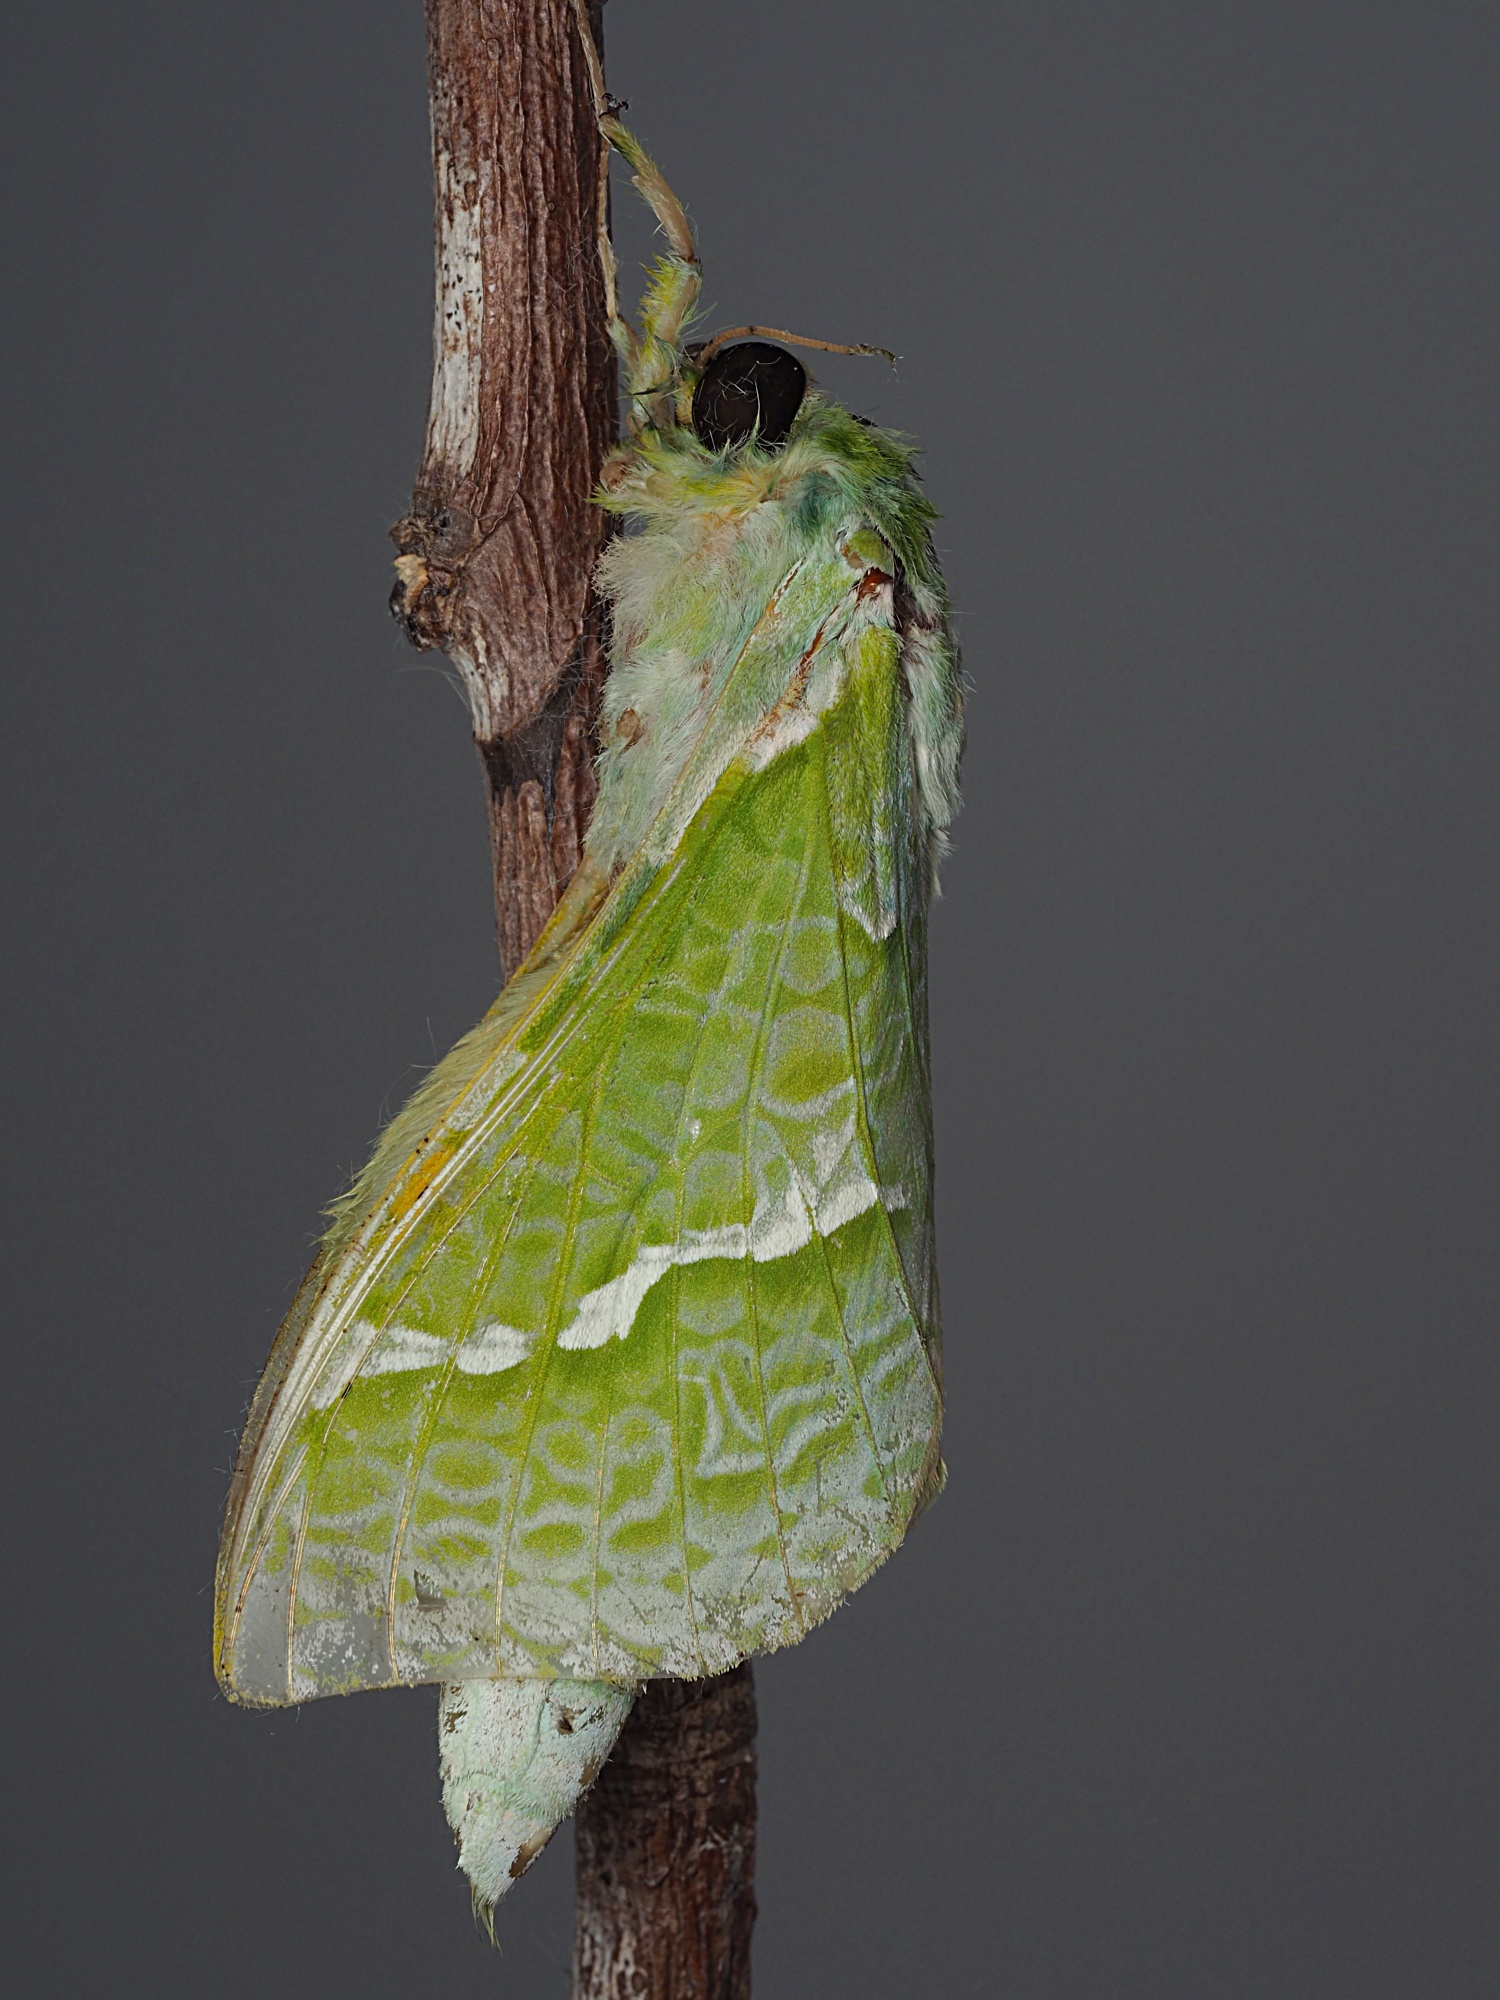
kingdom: Animalia
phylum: Arthropoda
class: Insecta
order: Lepidoptera
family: Hepialidae
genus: Aenetus
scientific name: Aenetus virescens
